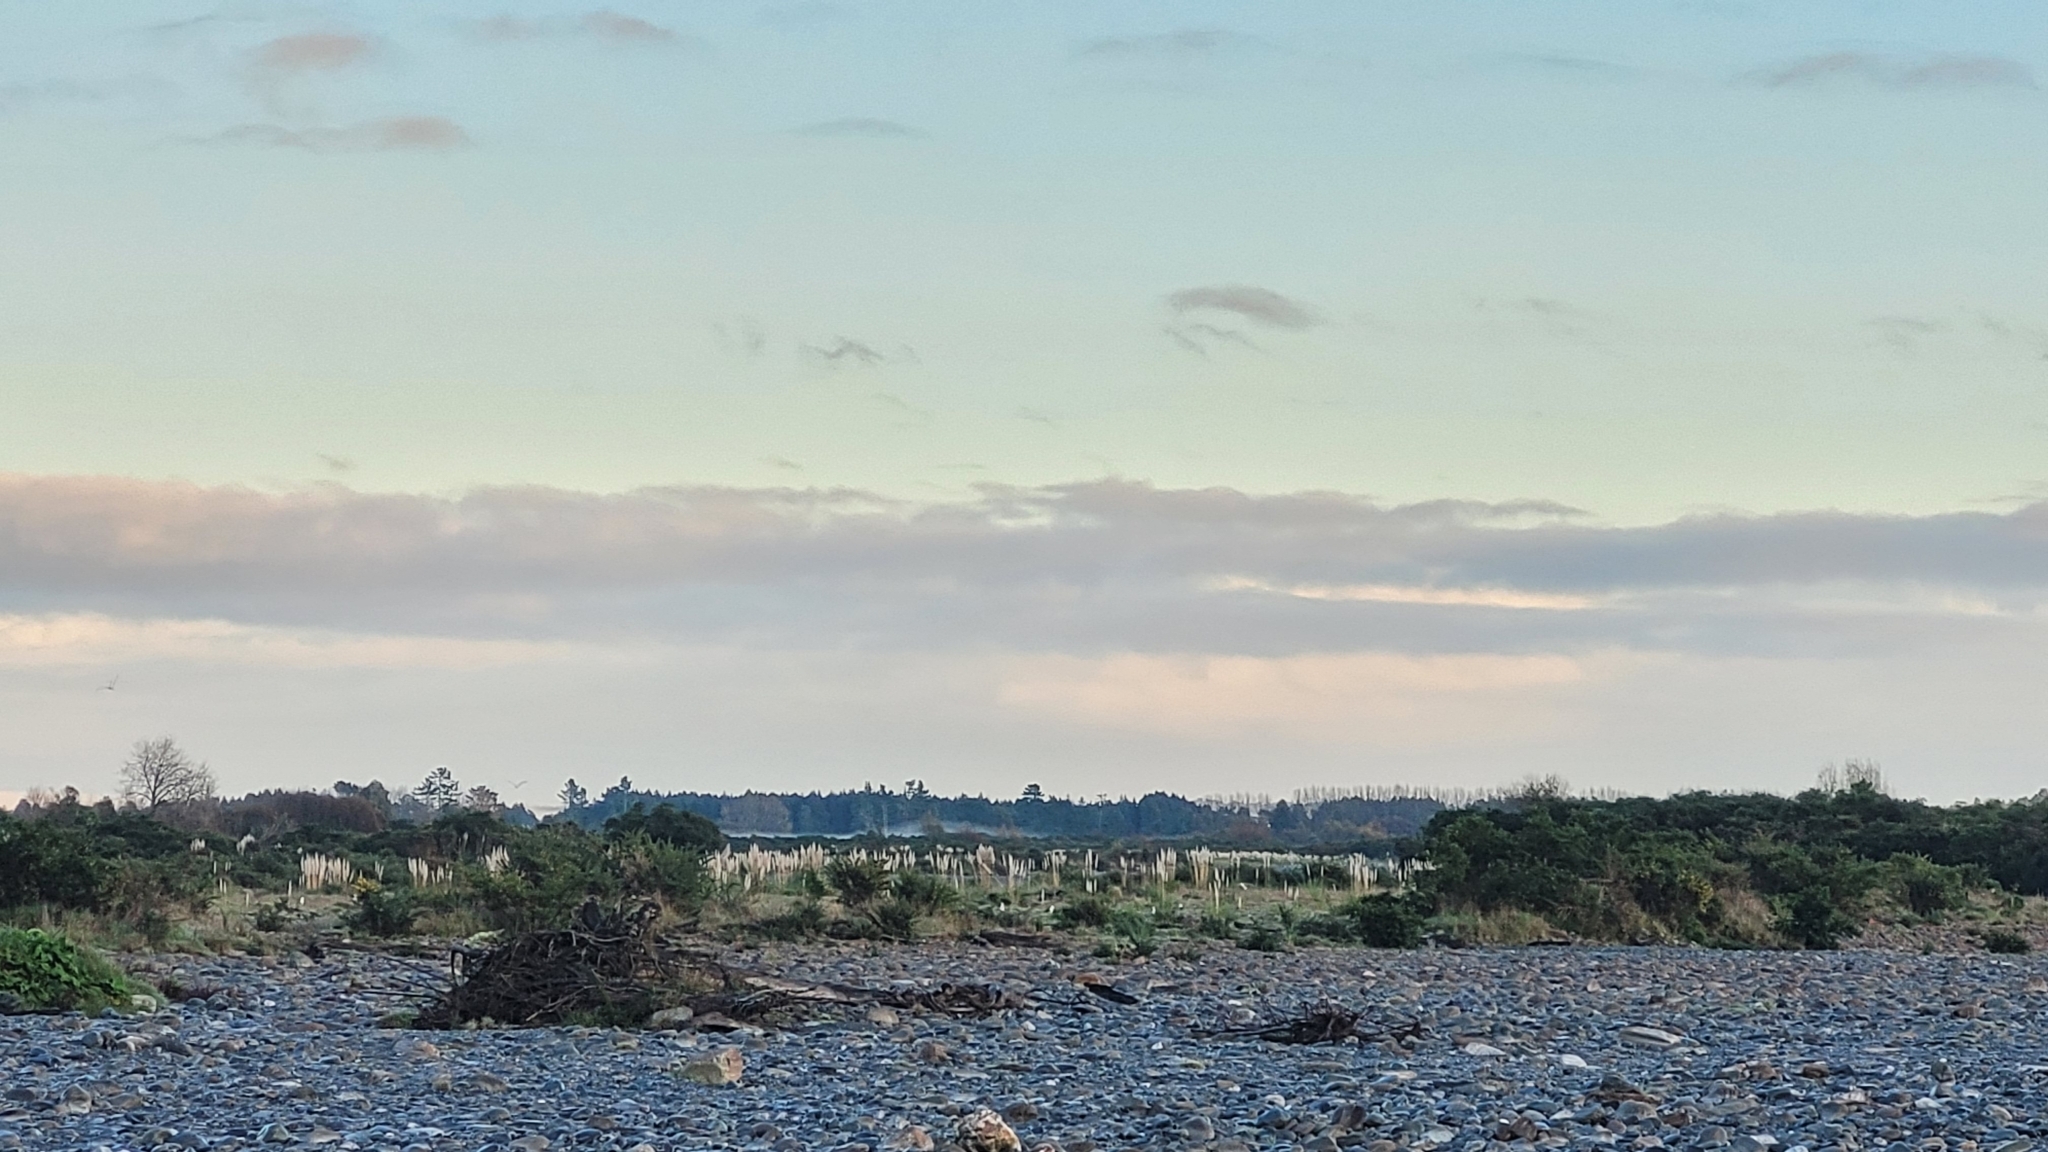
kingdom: Plantae
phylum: Tracheophyta
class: Liliopsida
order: Poales
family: Poaceae
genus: Cortaderia
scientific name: Cortaderia jubata
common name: Purple pampas grass
